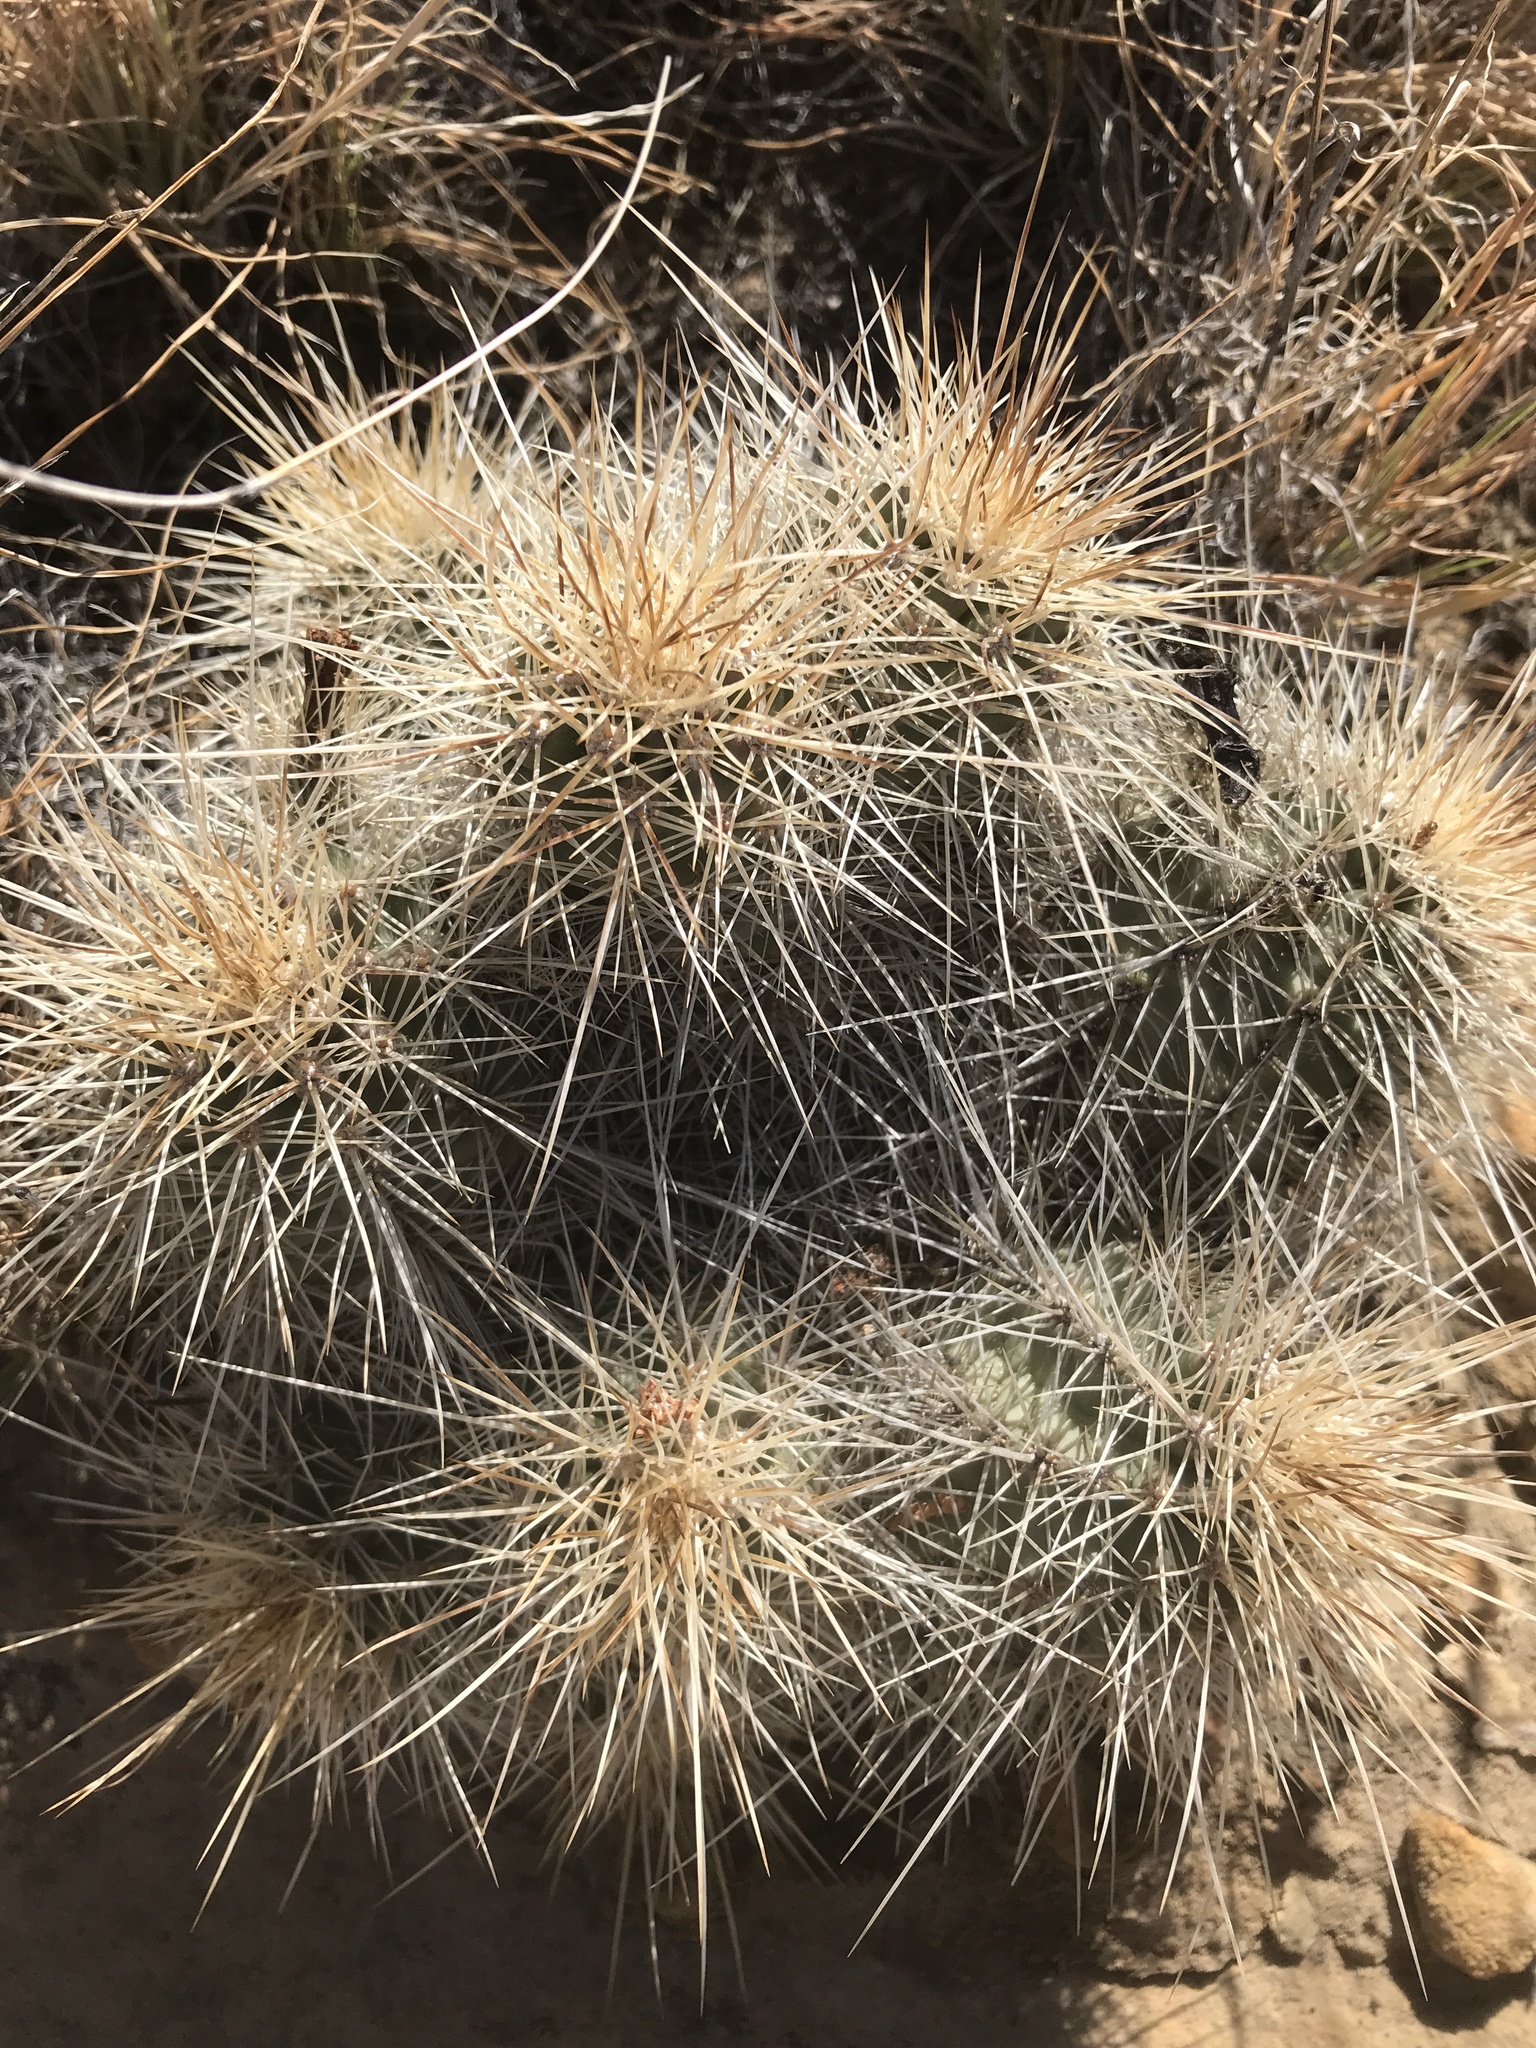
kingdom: Plantae
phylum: Tracheophyta
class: Magnoliopsida
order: Caryophyllales
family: Cactaceae
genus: Echinocereus
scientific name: Echinocereus coccineus
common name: Scarlet hedgehog cactus
